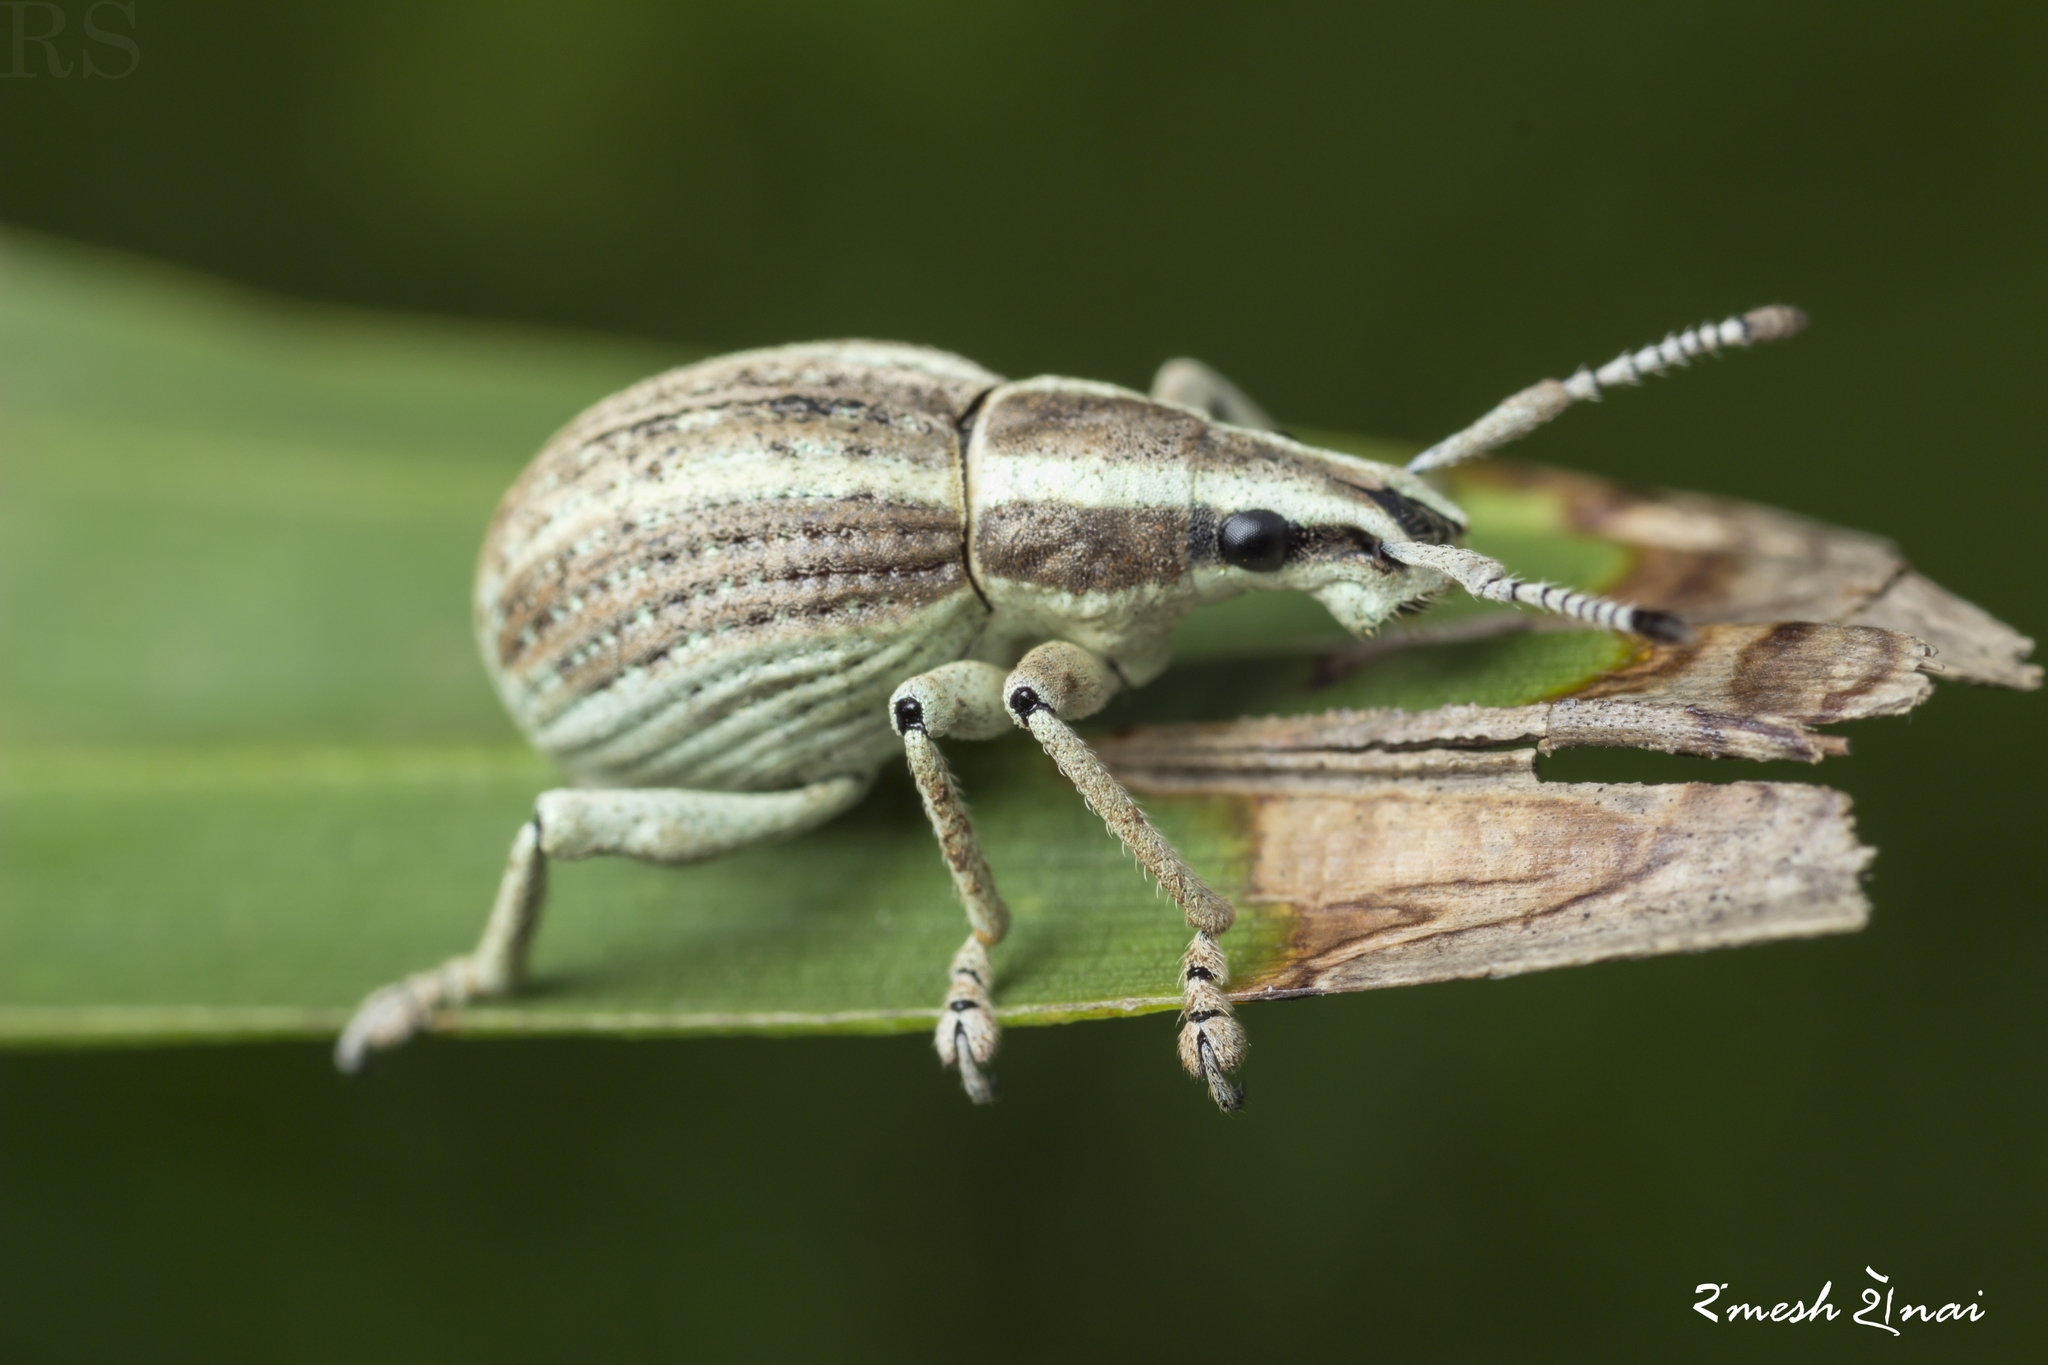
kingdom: Animalia
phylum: Arthropoda
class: Insecta
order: Coleoptera
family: Curculionidae
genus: Parapionus
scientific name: Parapionus varicolor
